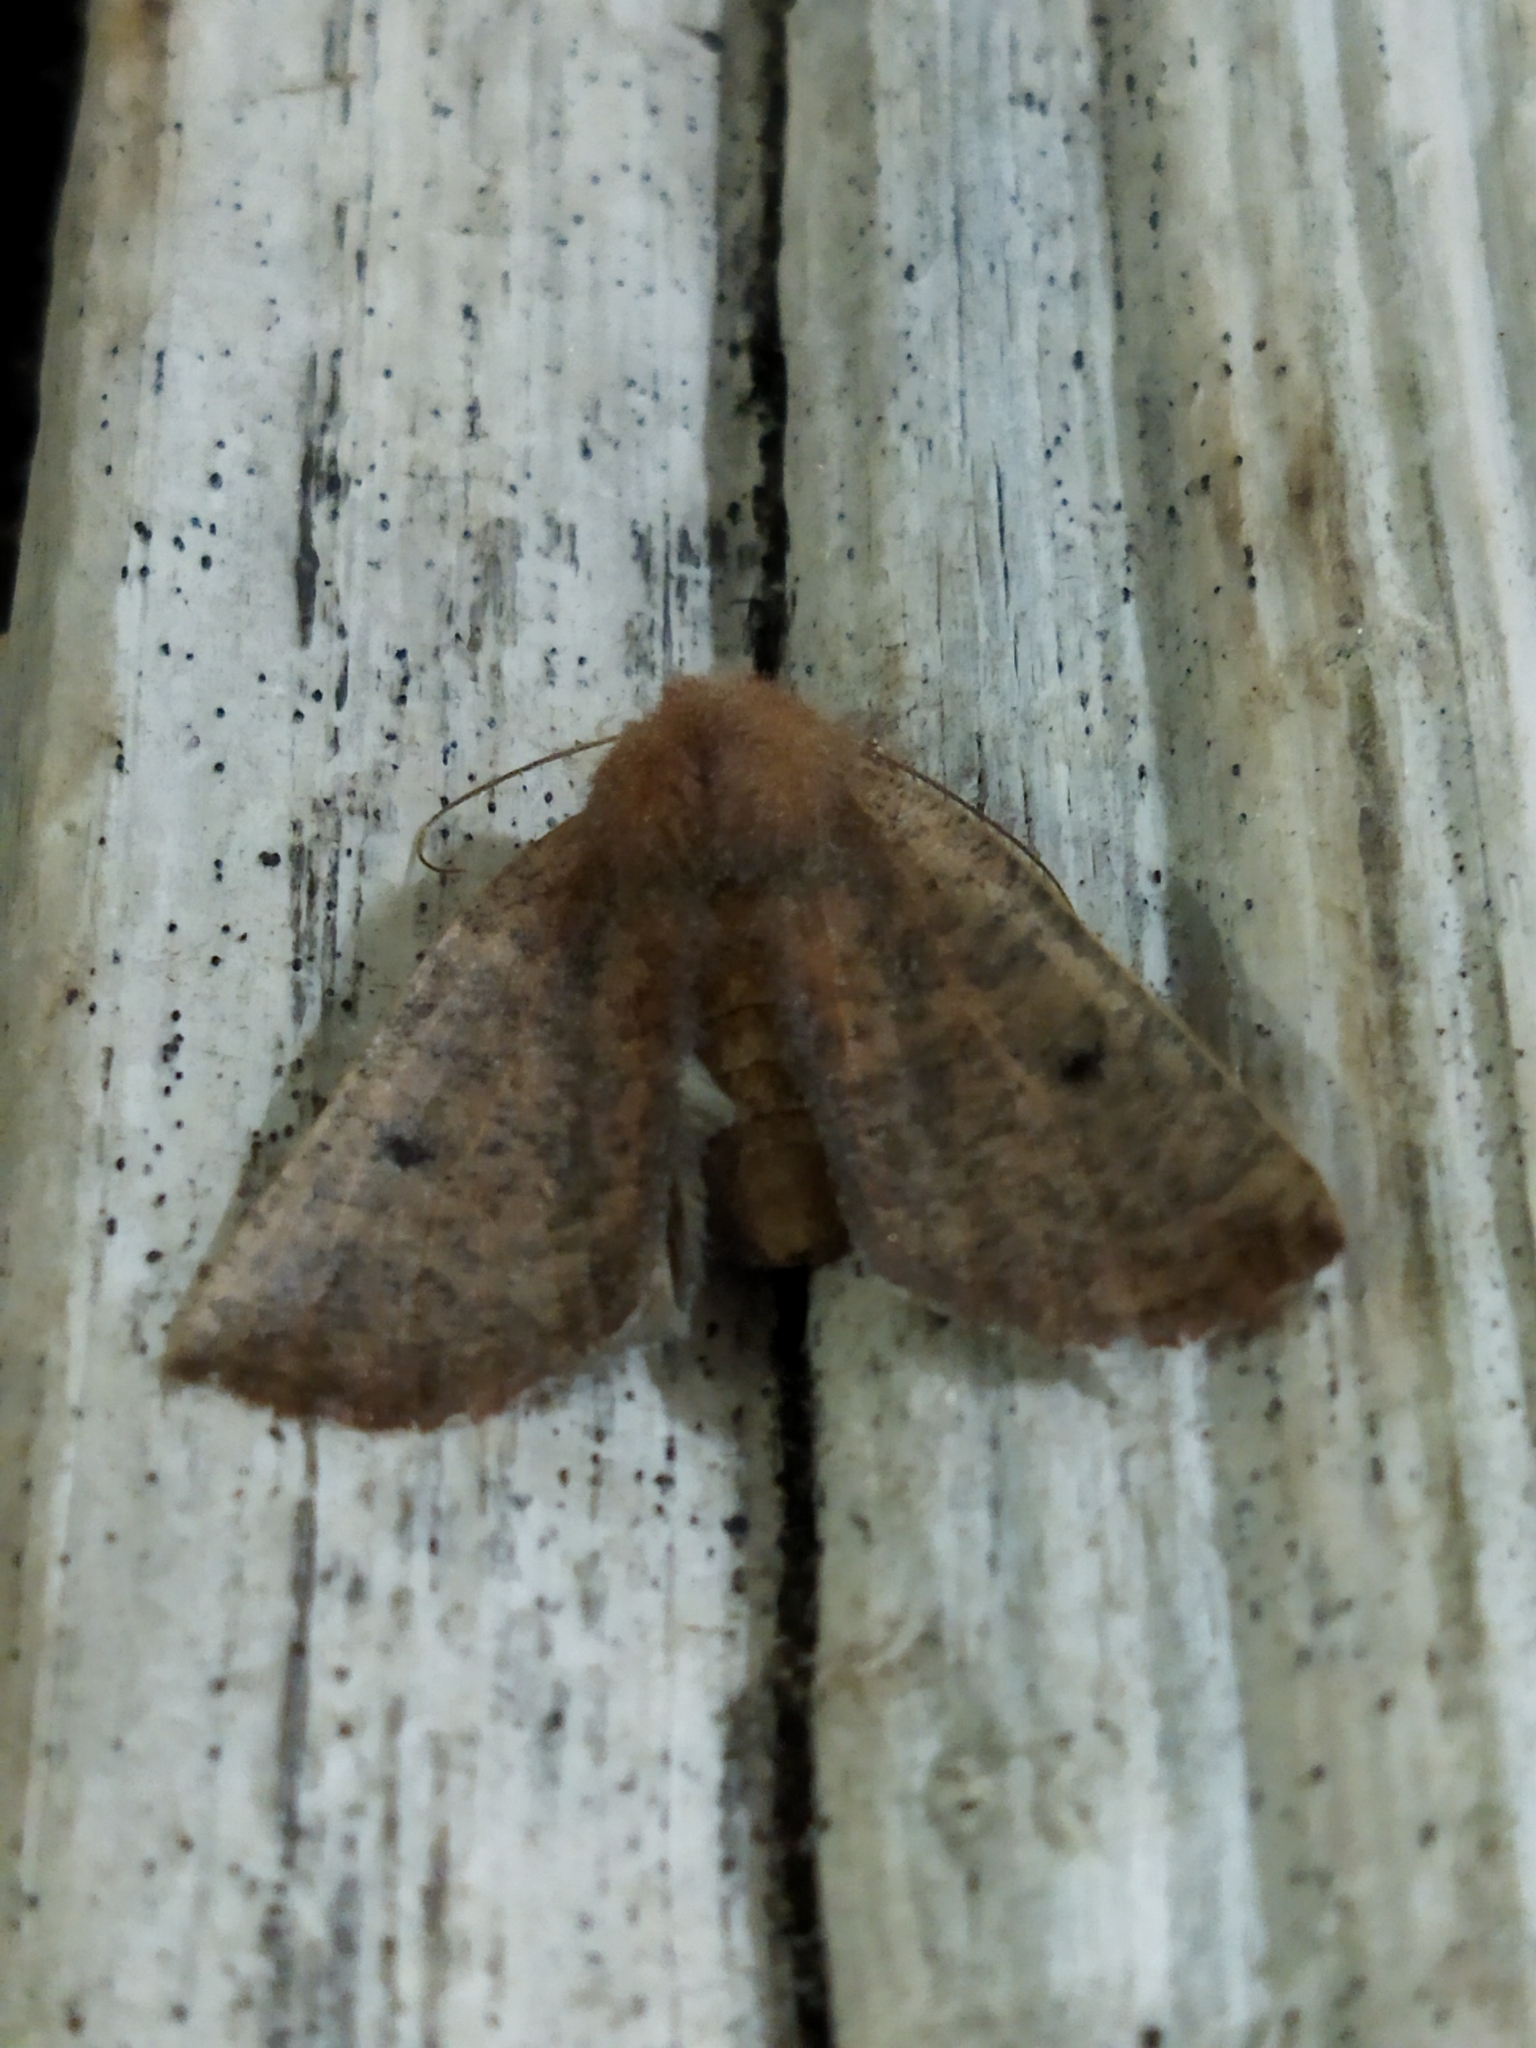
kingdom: Animalia
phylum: Arthropoda
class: Insecta
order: Lepidoptera
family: Geometridae
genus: Dasycorsa
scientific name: Dasycorsa modesta
